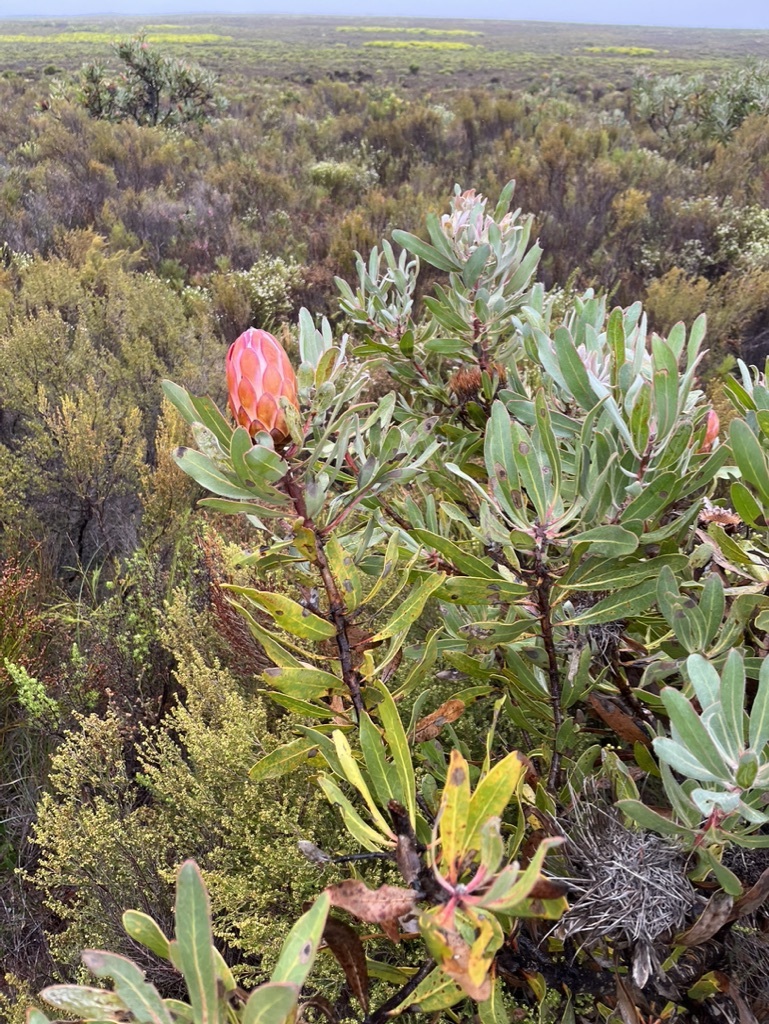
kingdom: Plantae
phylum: Tracheophyta
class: Magnoliopsida
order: Proteales
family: Proteaceae
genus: Protea
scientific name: Protea susannae
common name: Foetid-leaf sugarbush
